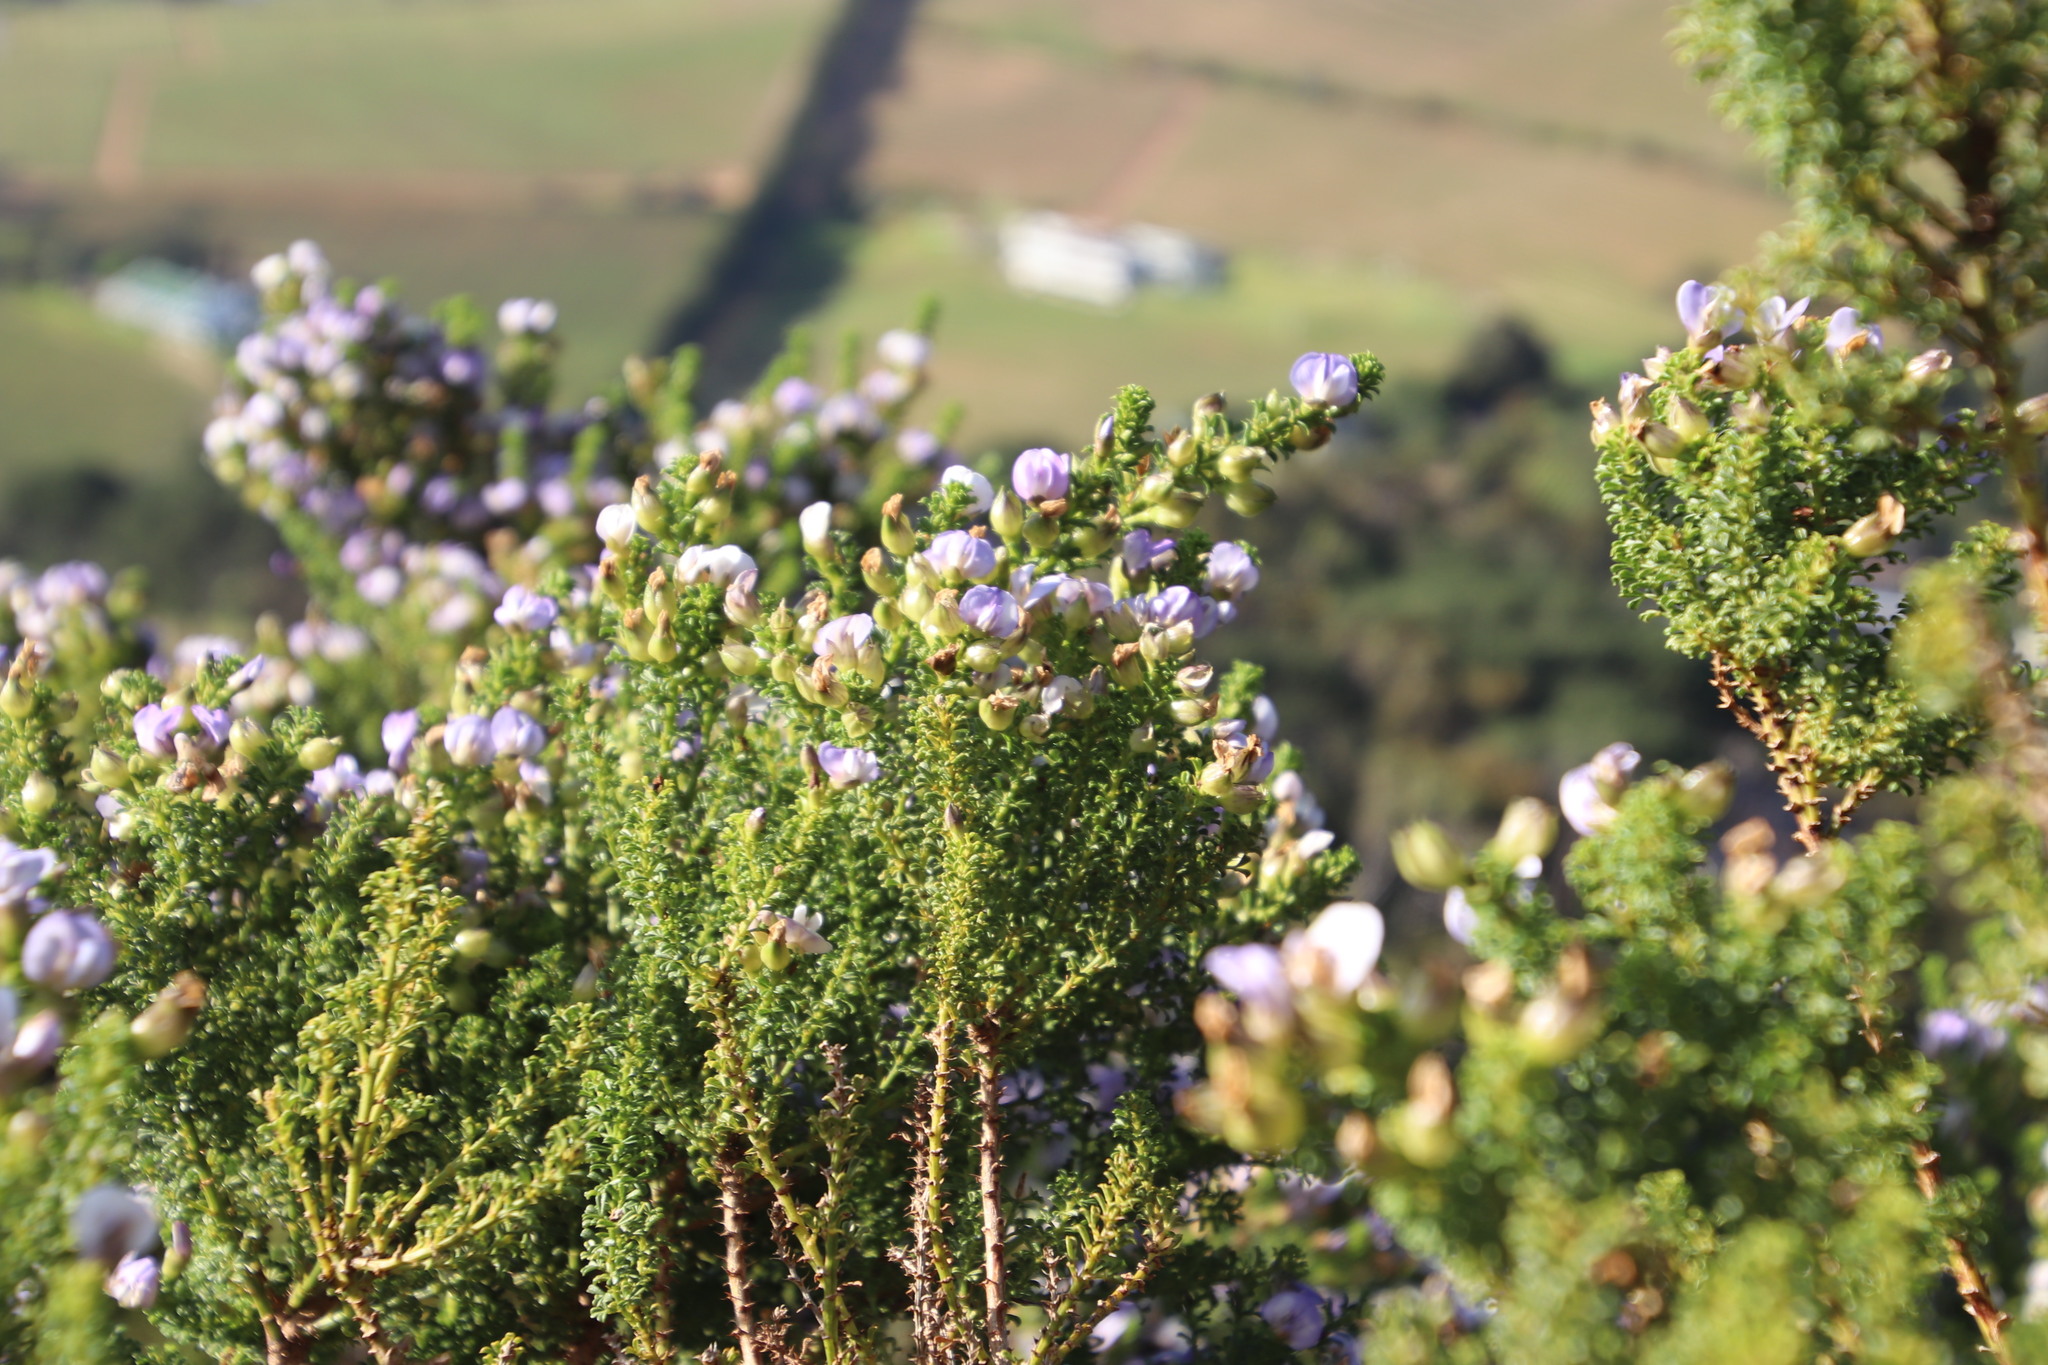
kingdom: Plantae
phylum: Tracheophyta
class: Magnoliopsida
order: Fabales
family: Fabaceae
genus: Psoralea
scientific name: Psoralea aculeata
